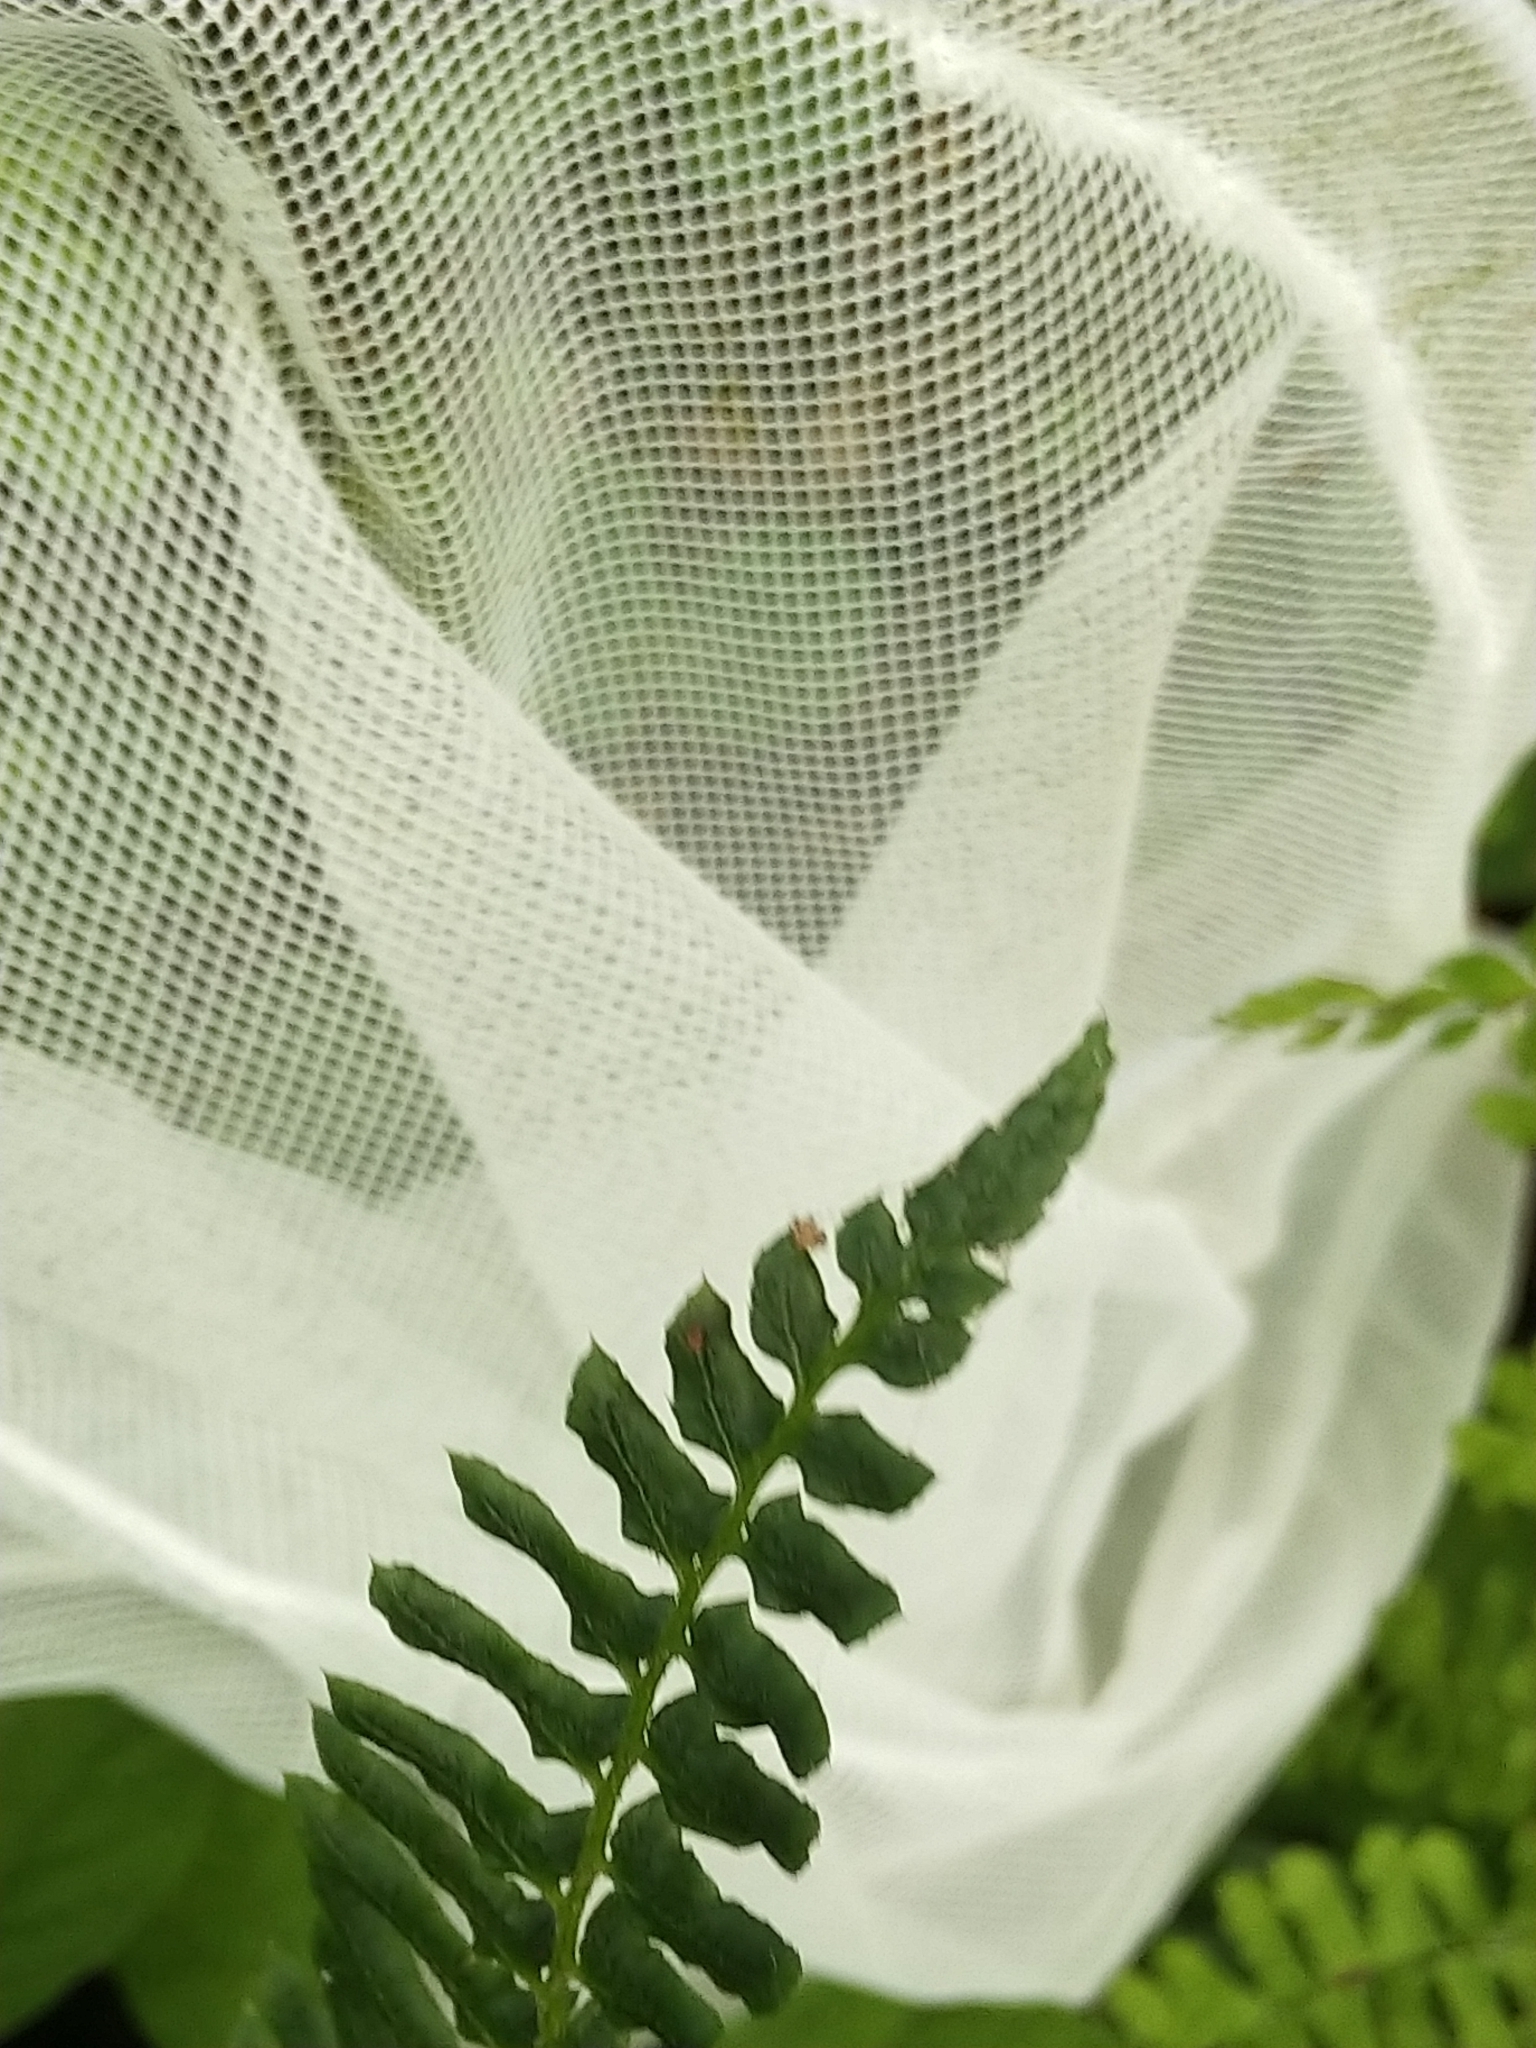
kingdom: Plantae
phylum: Tracheophyta
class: Polypodiopsida
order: Polypodiales
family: Dryopteridaceae
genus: Polystichum
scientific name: Polystichum acrostichoides
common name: Christmas fern
